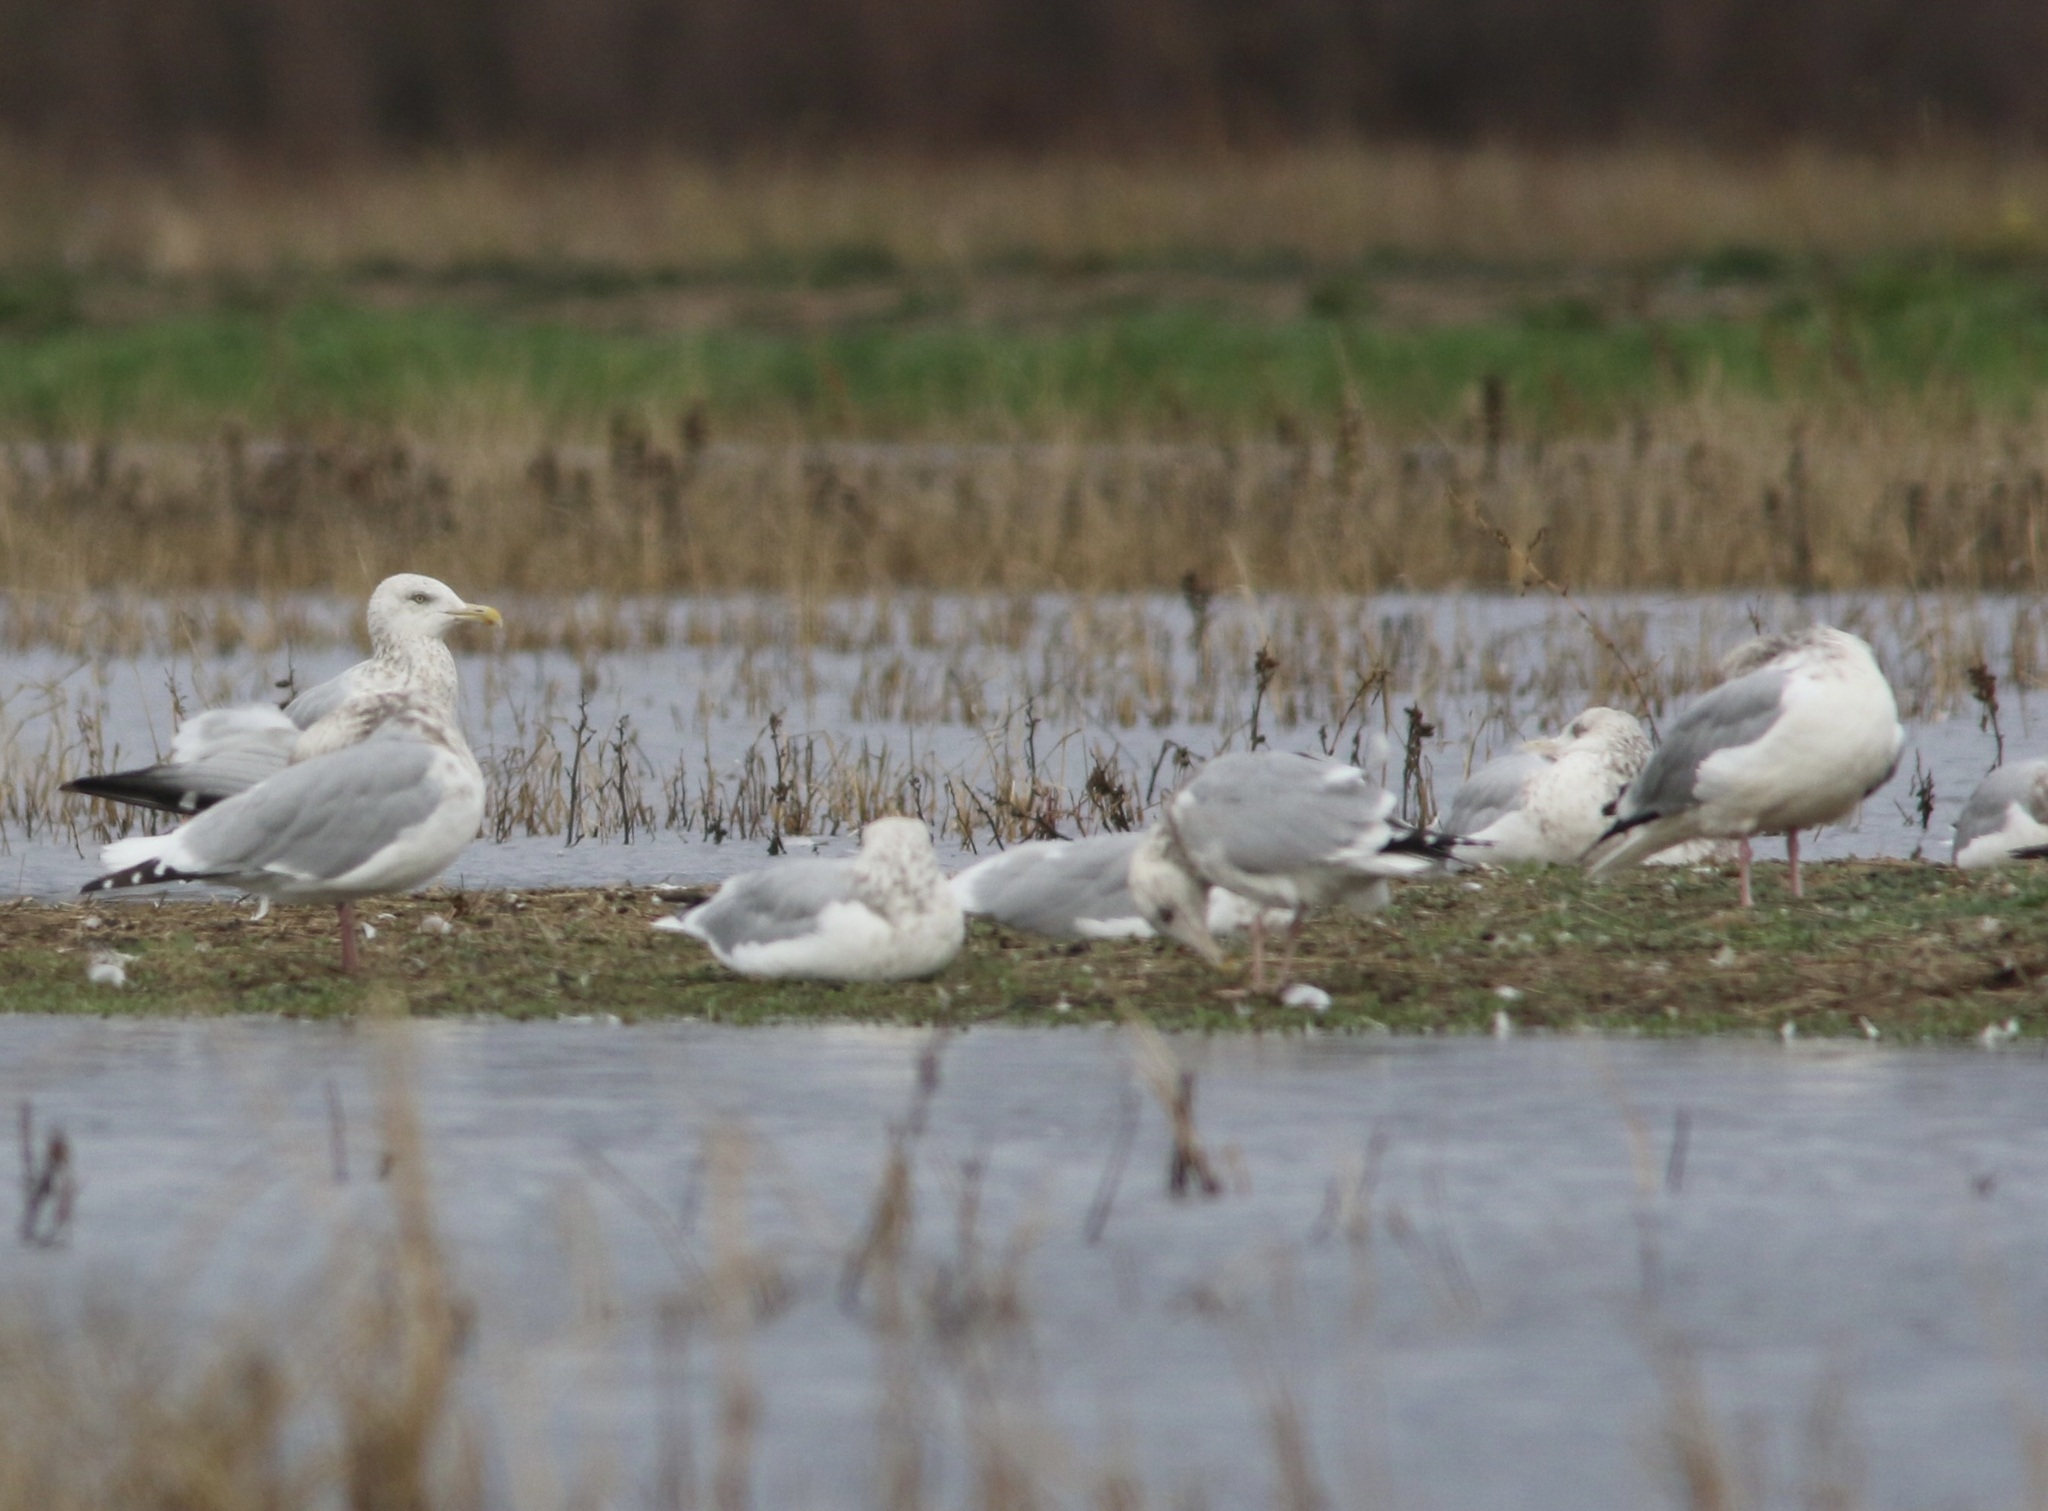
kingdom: Animalia
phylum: Chordata
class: Aves
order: Charadriiformes
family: Laridae
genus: Larus
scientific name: Larus argentatus
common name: Herring gull
